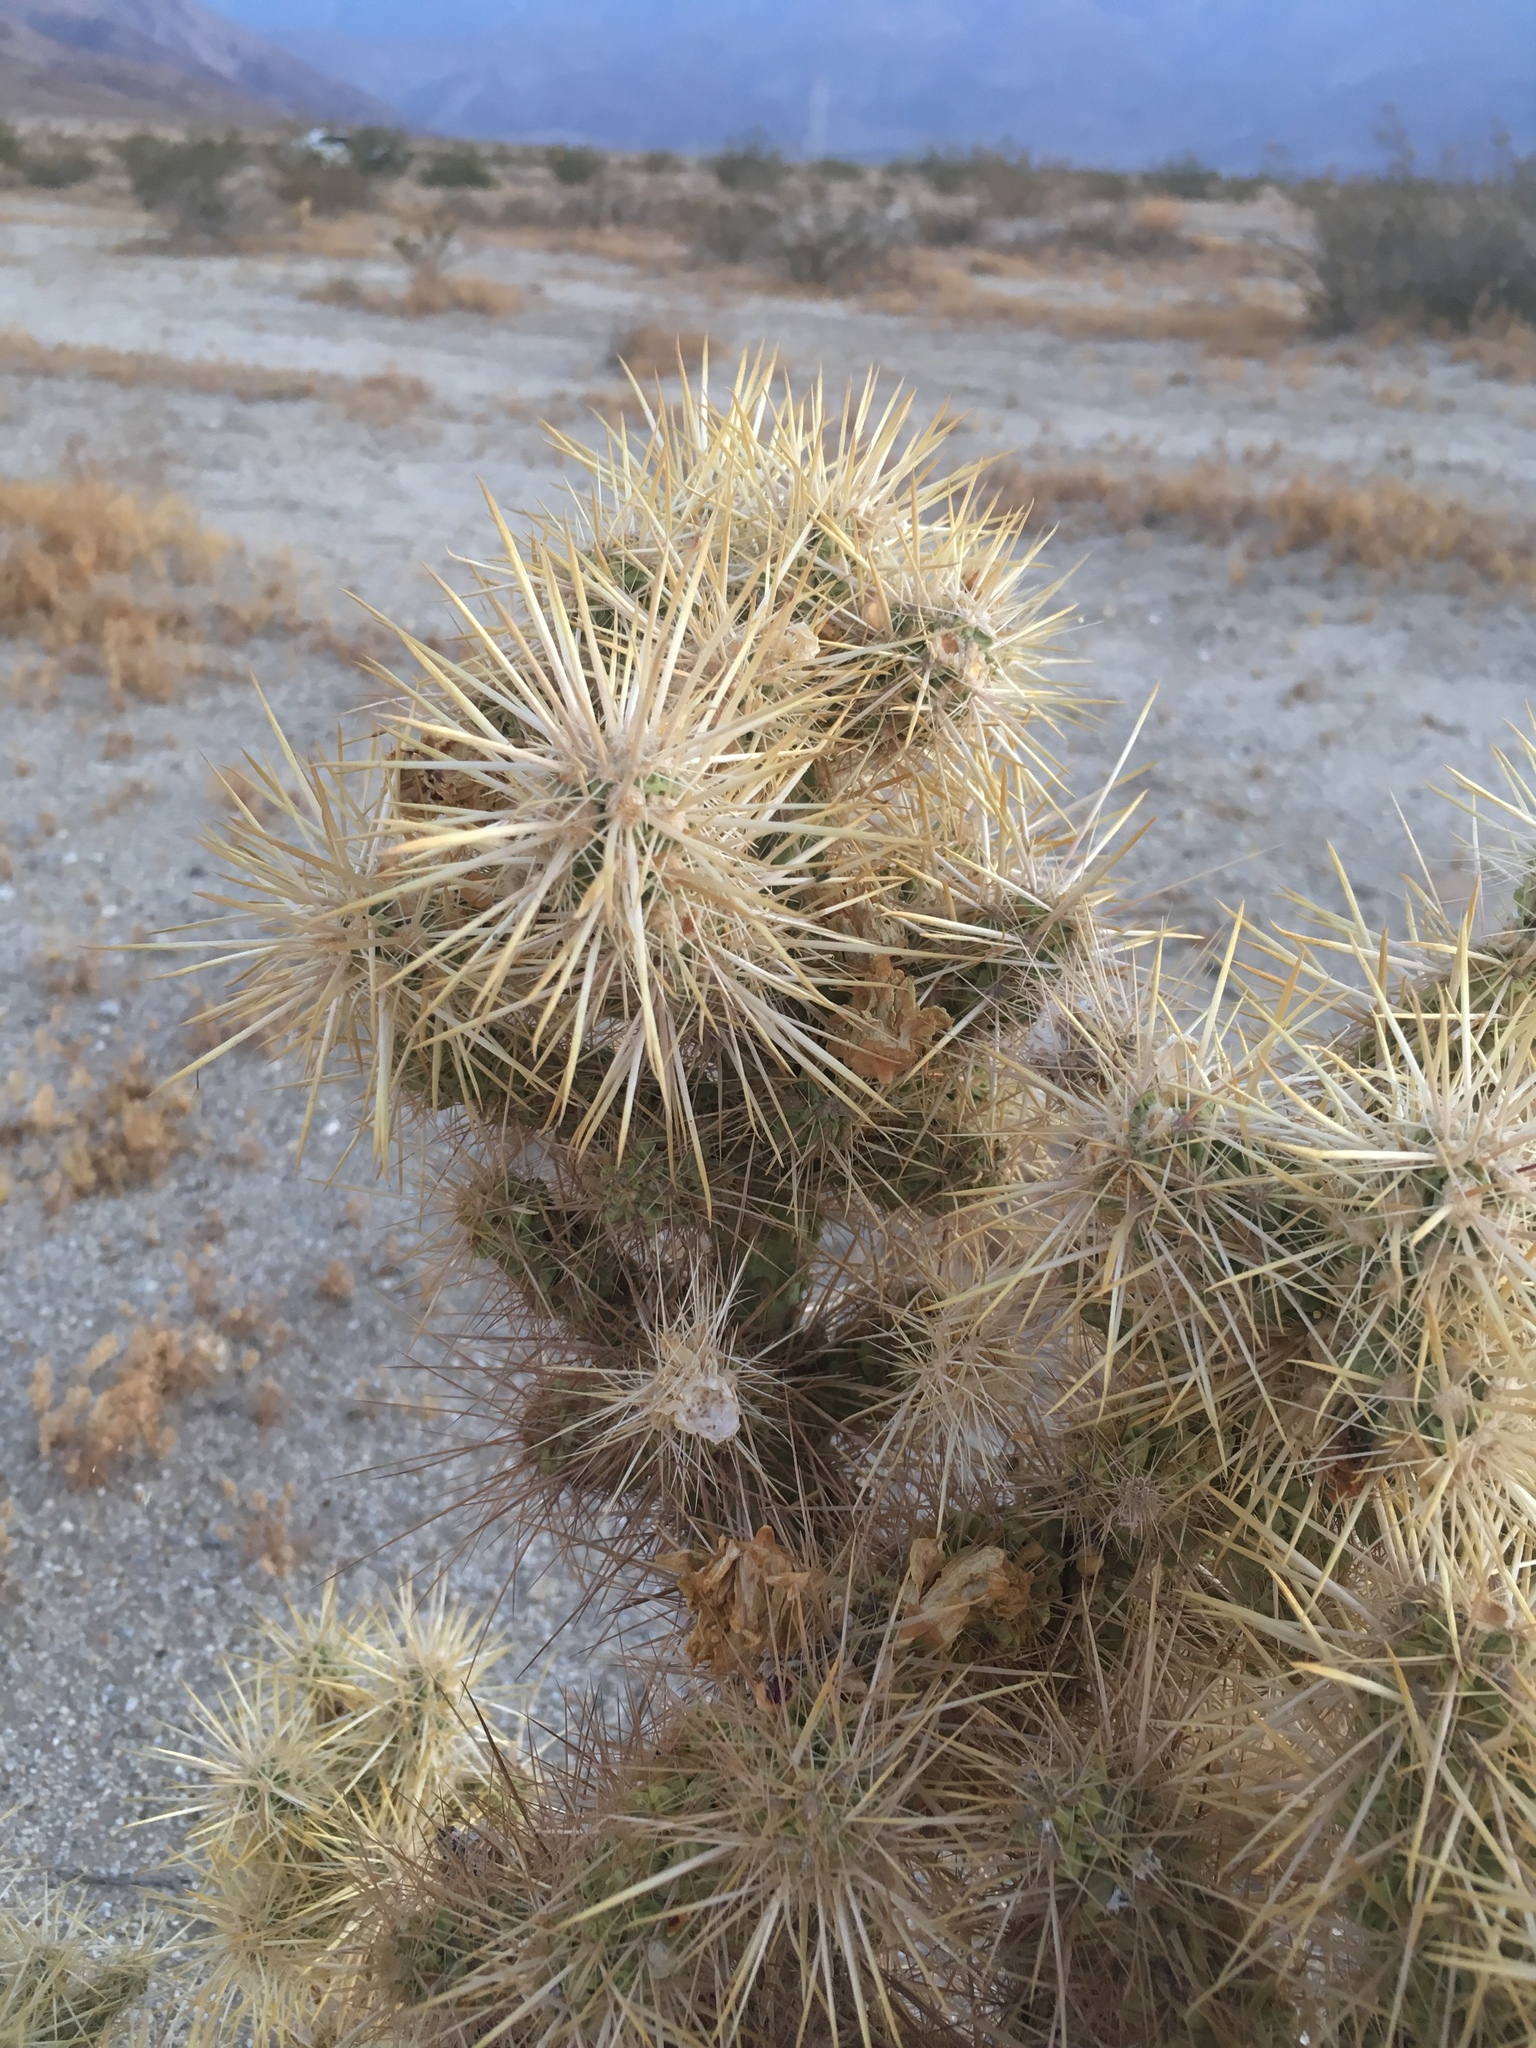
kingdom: Plantae
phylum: Tracheophyta
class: Magnoliopsida
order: Caryophyllales
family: Cactaceae
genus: Cylindropuntia
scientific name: Cylindropuntia echinocarpa
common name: Ground cholla
